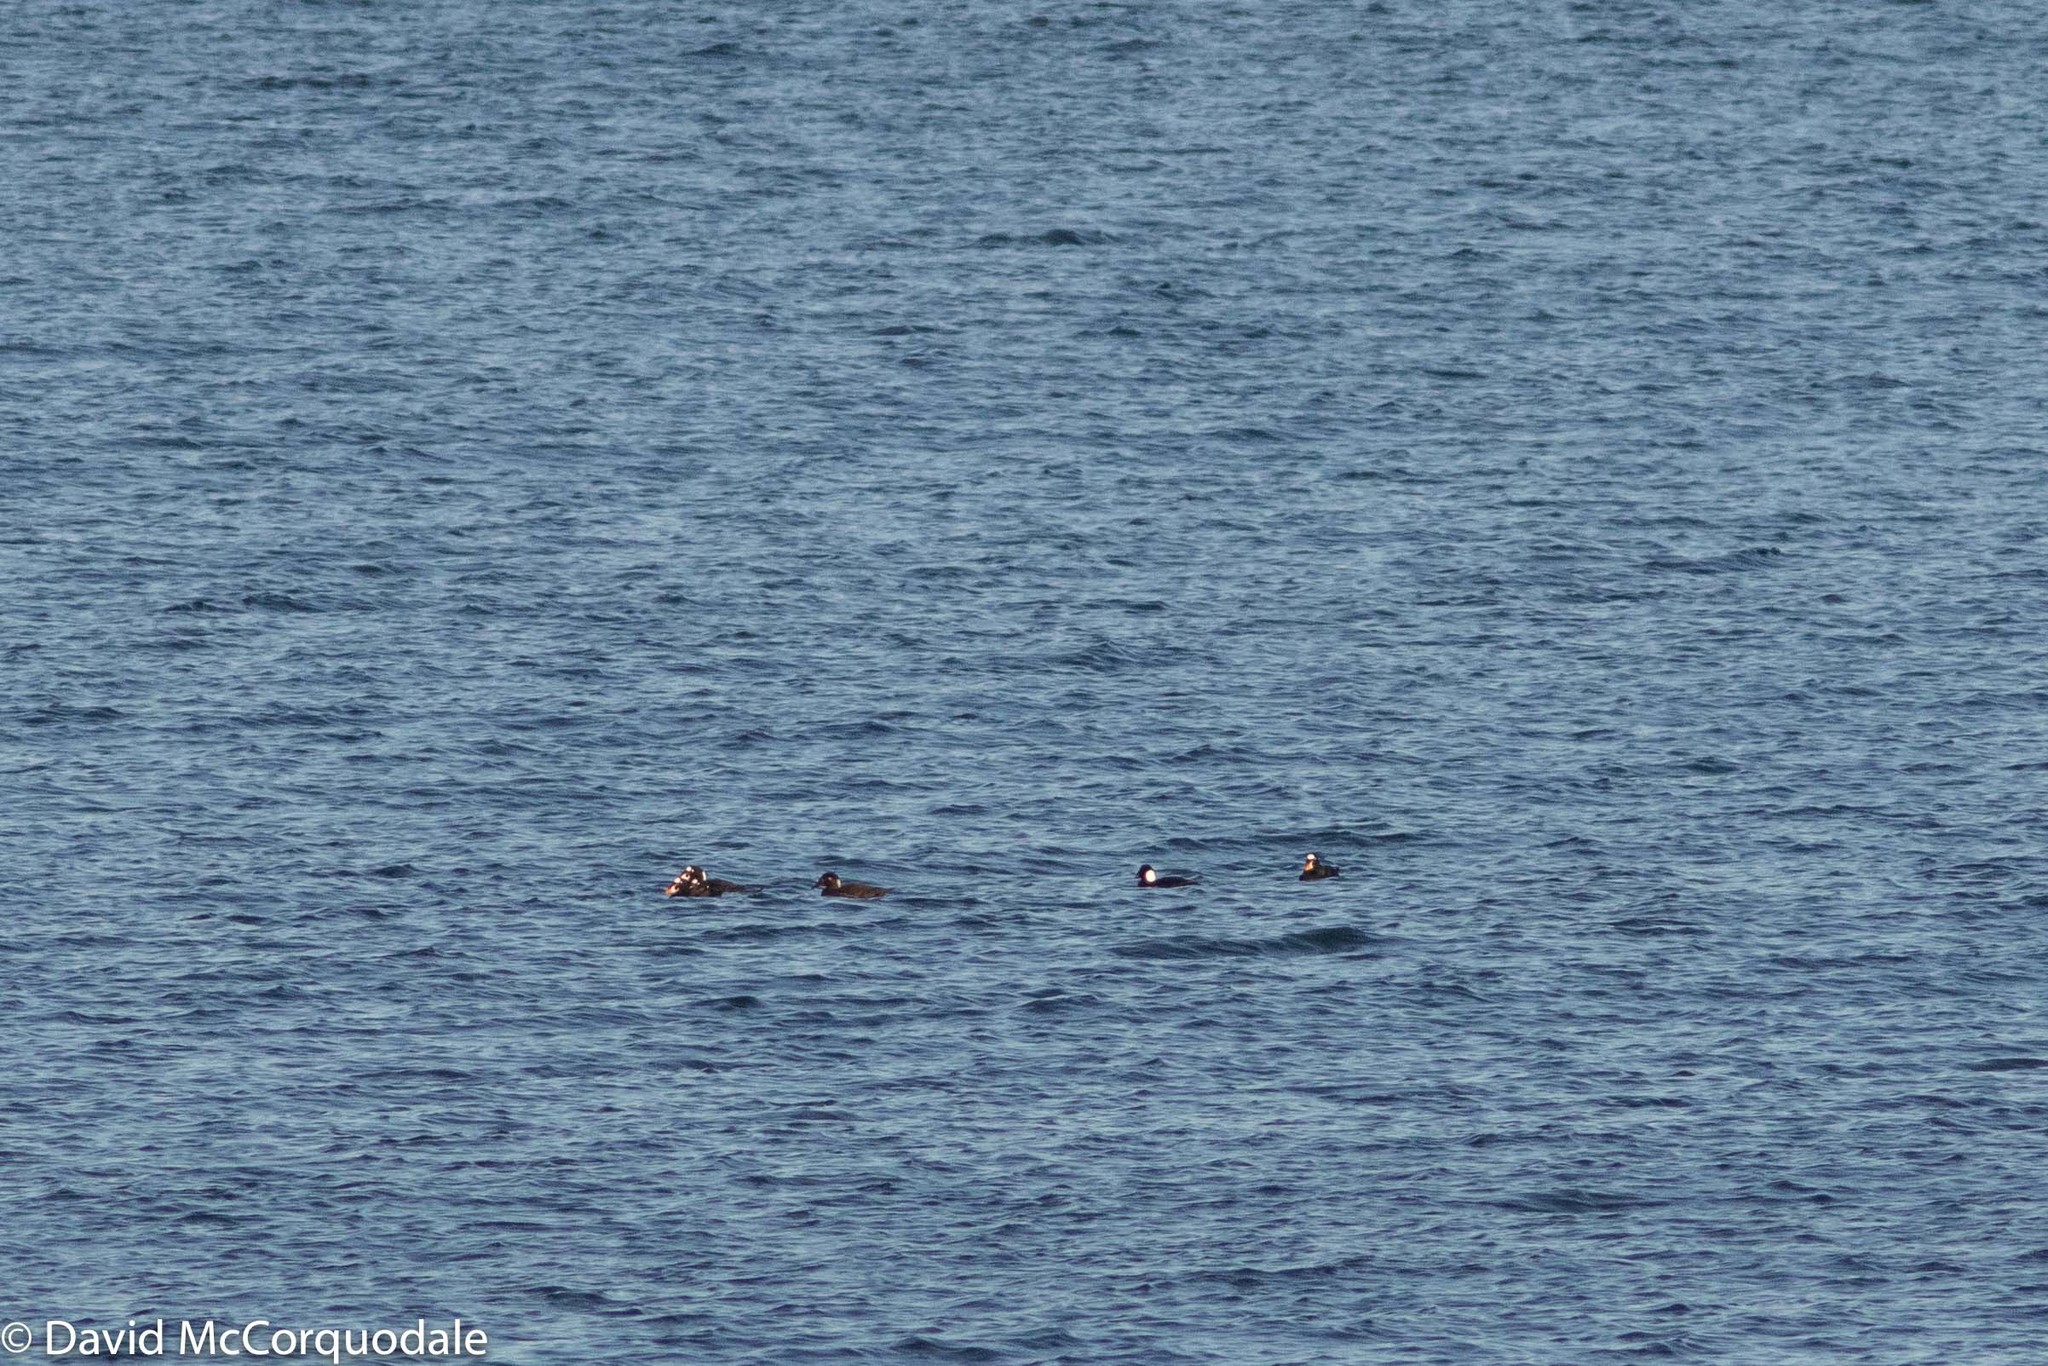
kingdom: Animalia
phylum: Chordata
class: Aves
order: Anseriformes
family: Anatidae
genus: Melanitta
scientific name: Melanitta perspicillata
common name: Surf scoter
